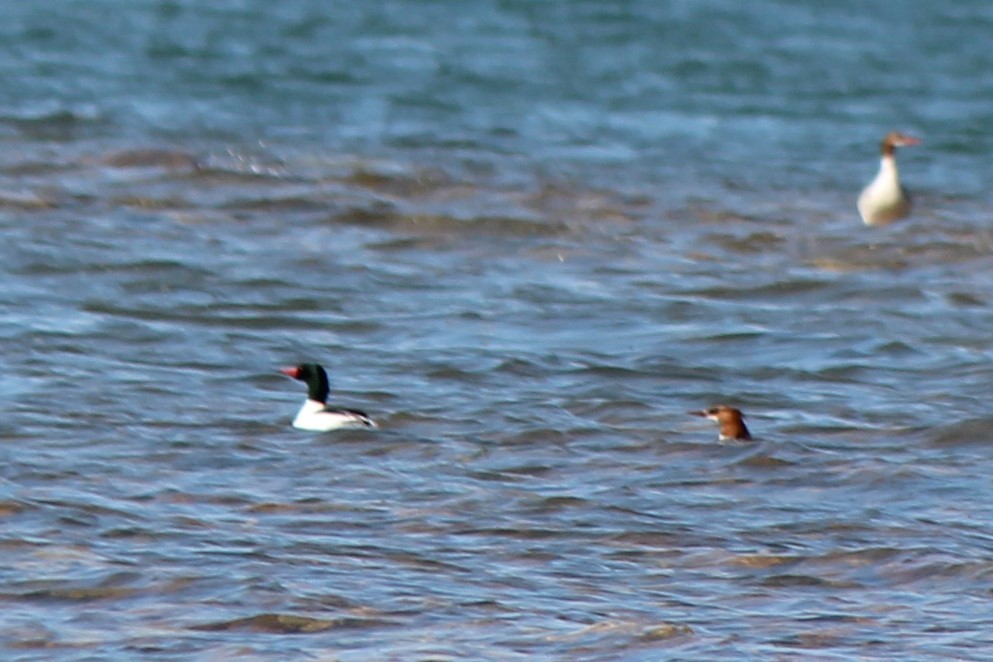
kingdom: Animalia
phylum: Chordata
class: Aves
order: Anseriformes
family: Anatidae
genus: Mergus
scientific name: Mergus merganser
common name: Common merganser
